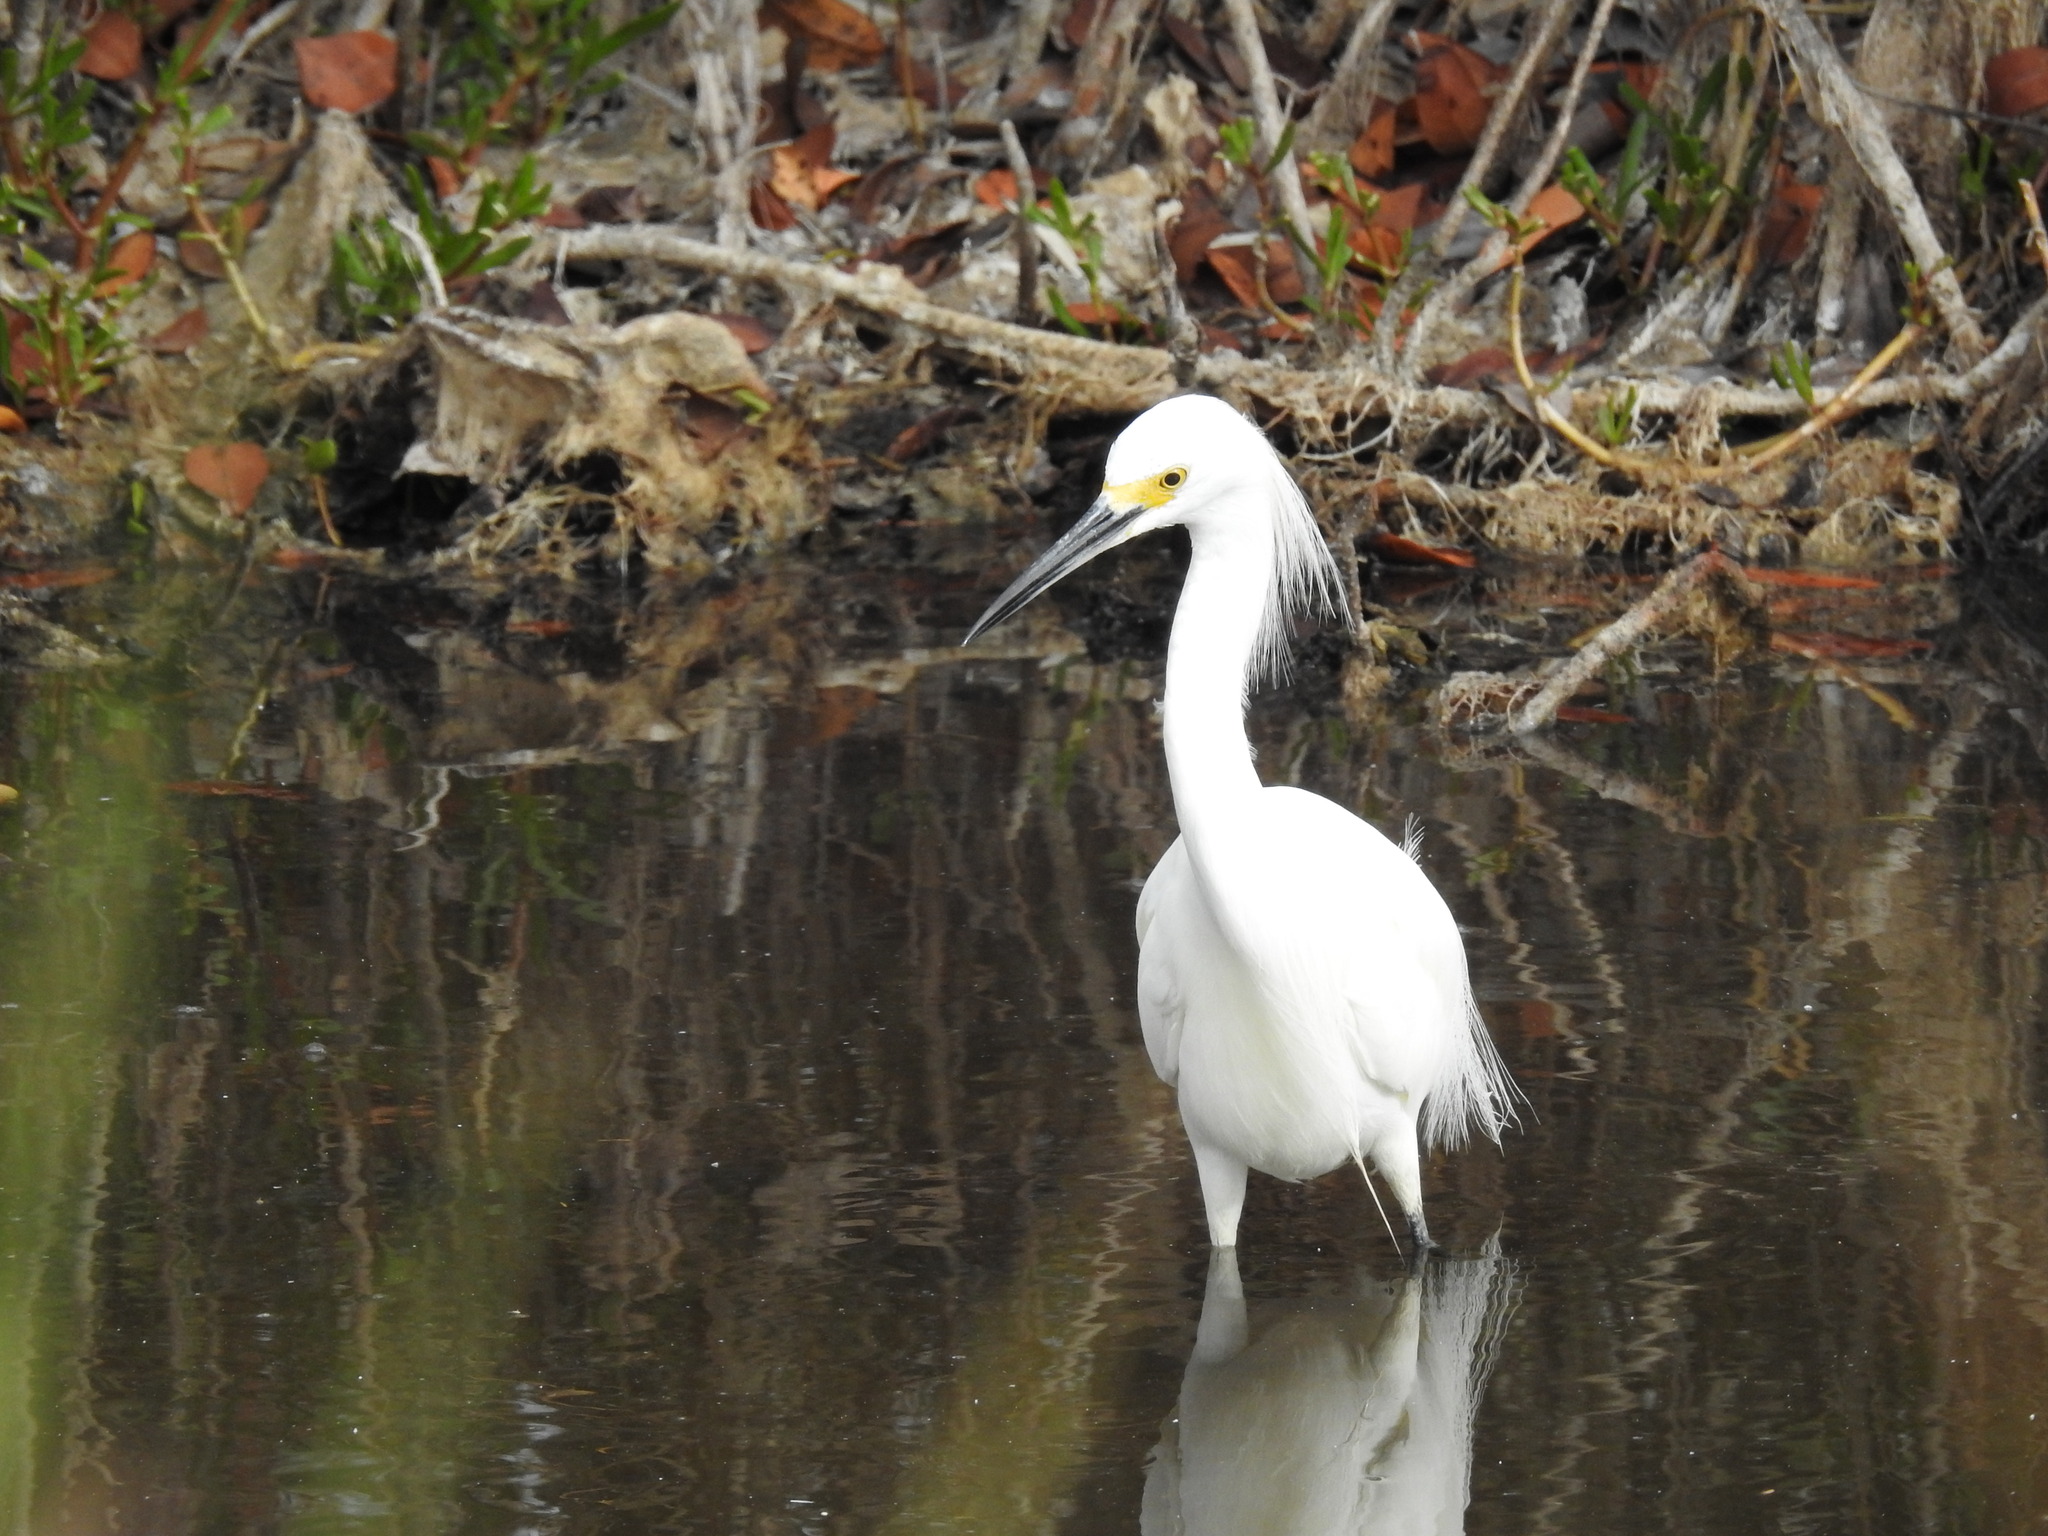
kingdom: Animalia
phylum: Chordata
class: Aves
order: Pelecaniformes
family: Ardeidae
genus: Egretta
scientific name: Egretta thula
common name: Snowy egret
